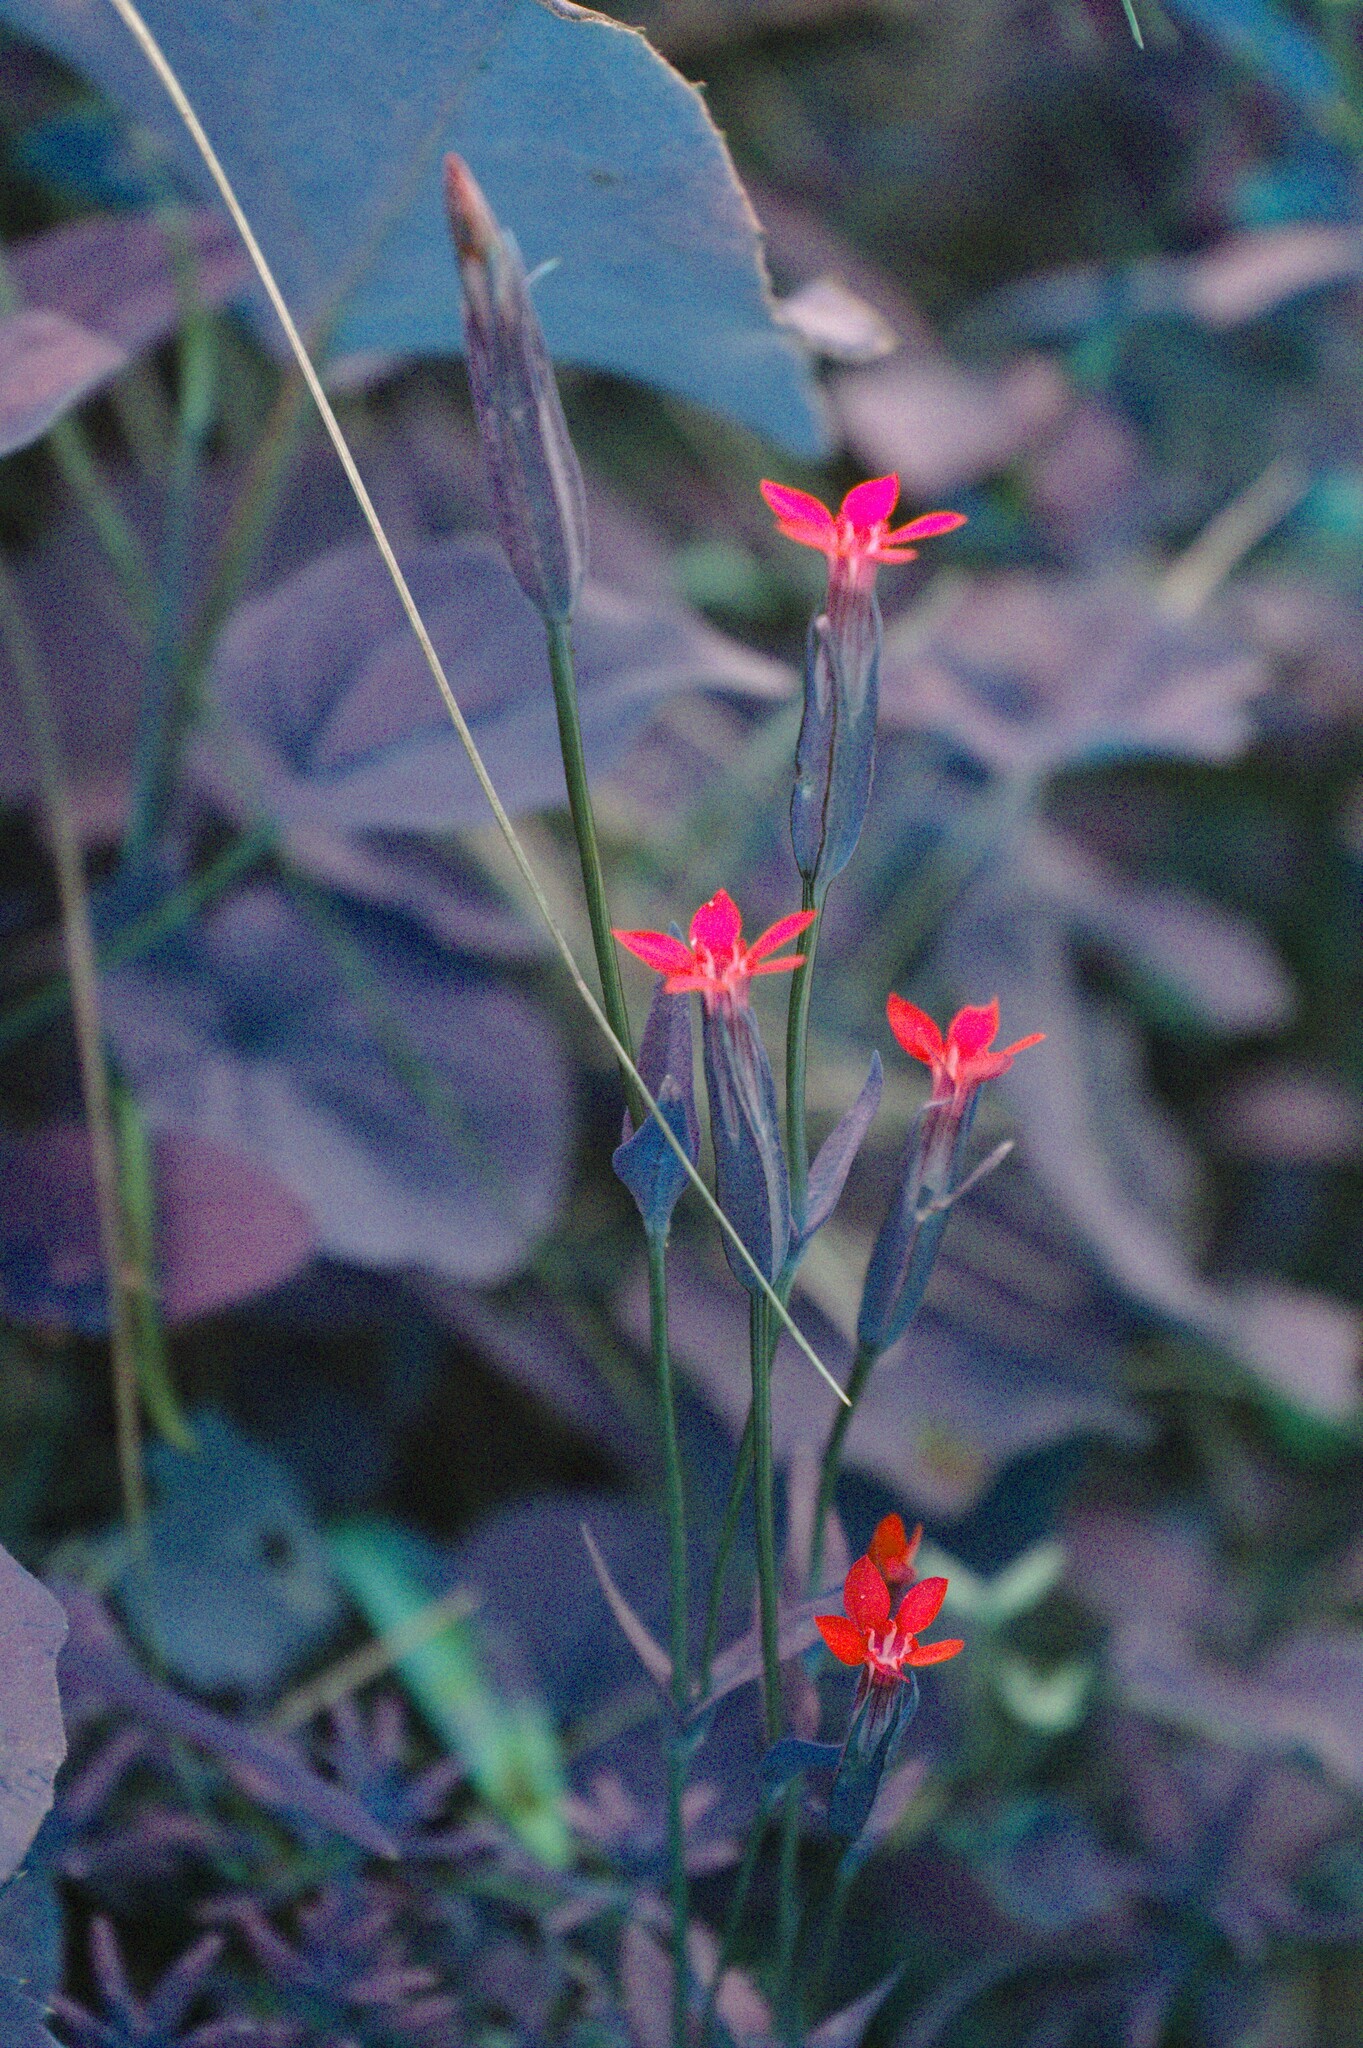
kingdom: Plantae
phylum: Tracheophyta
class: Magnoliopsida
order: Gentianales
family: Gentianaceae
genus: Gentiana
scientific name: Gentiana nivalis
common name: Alpine gentian
